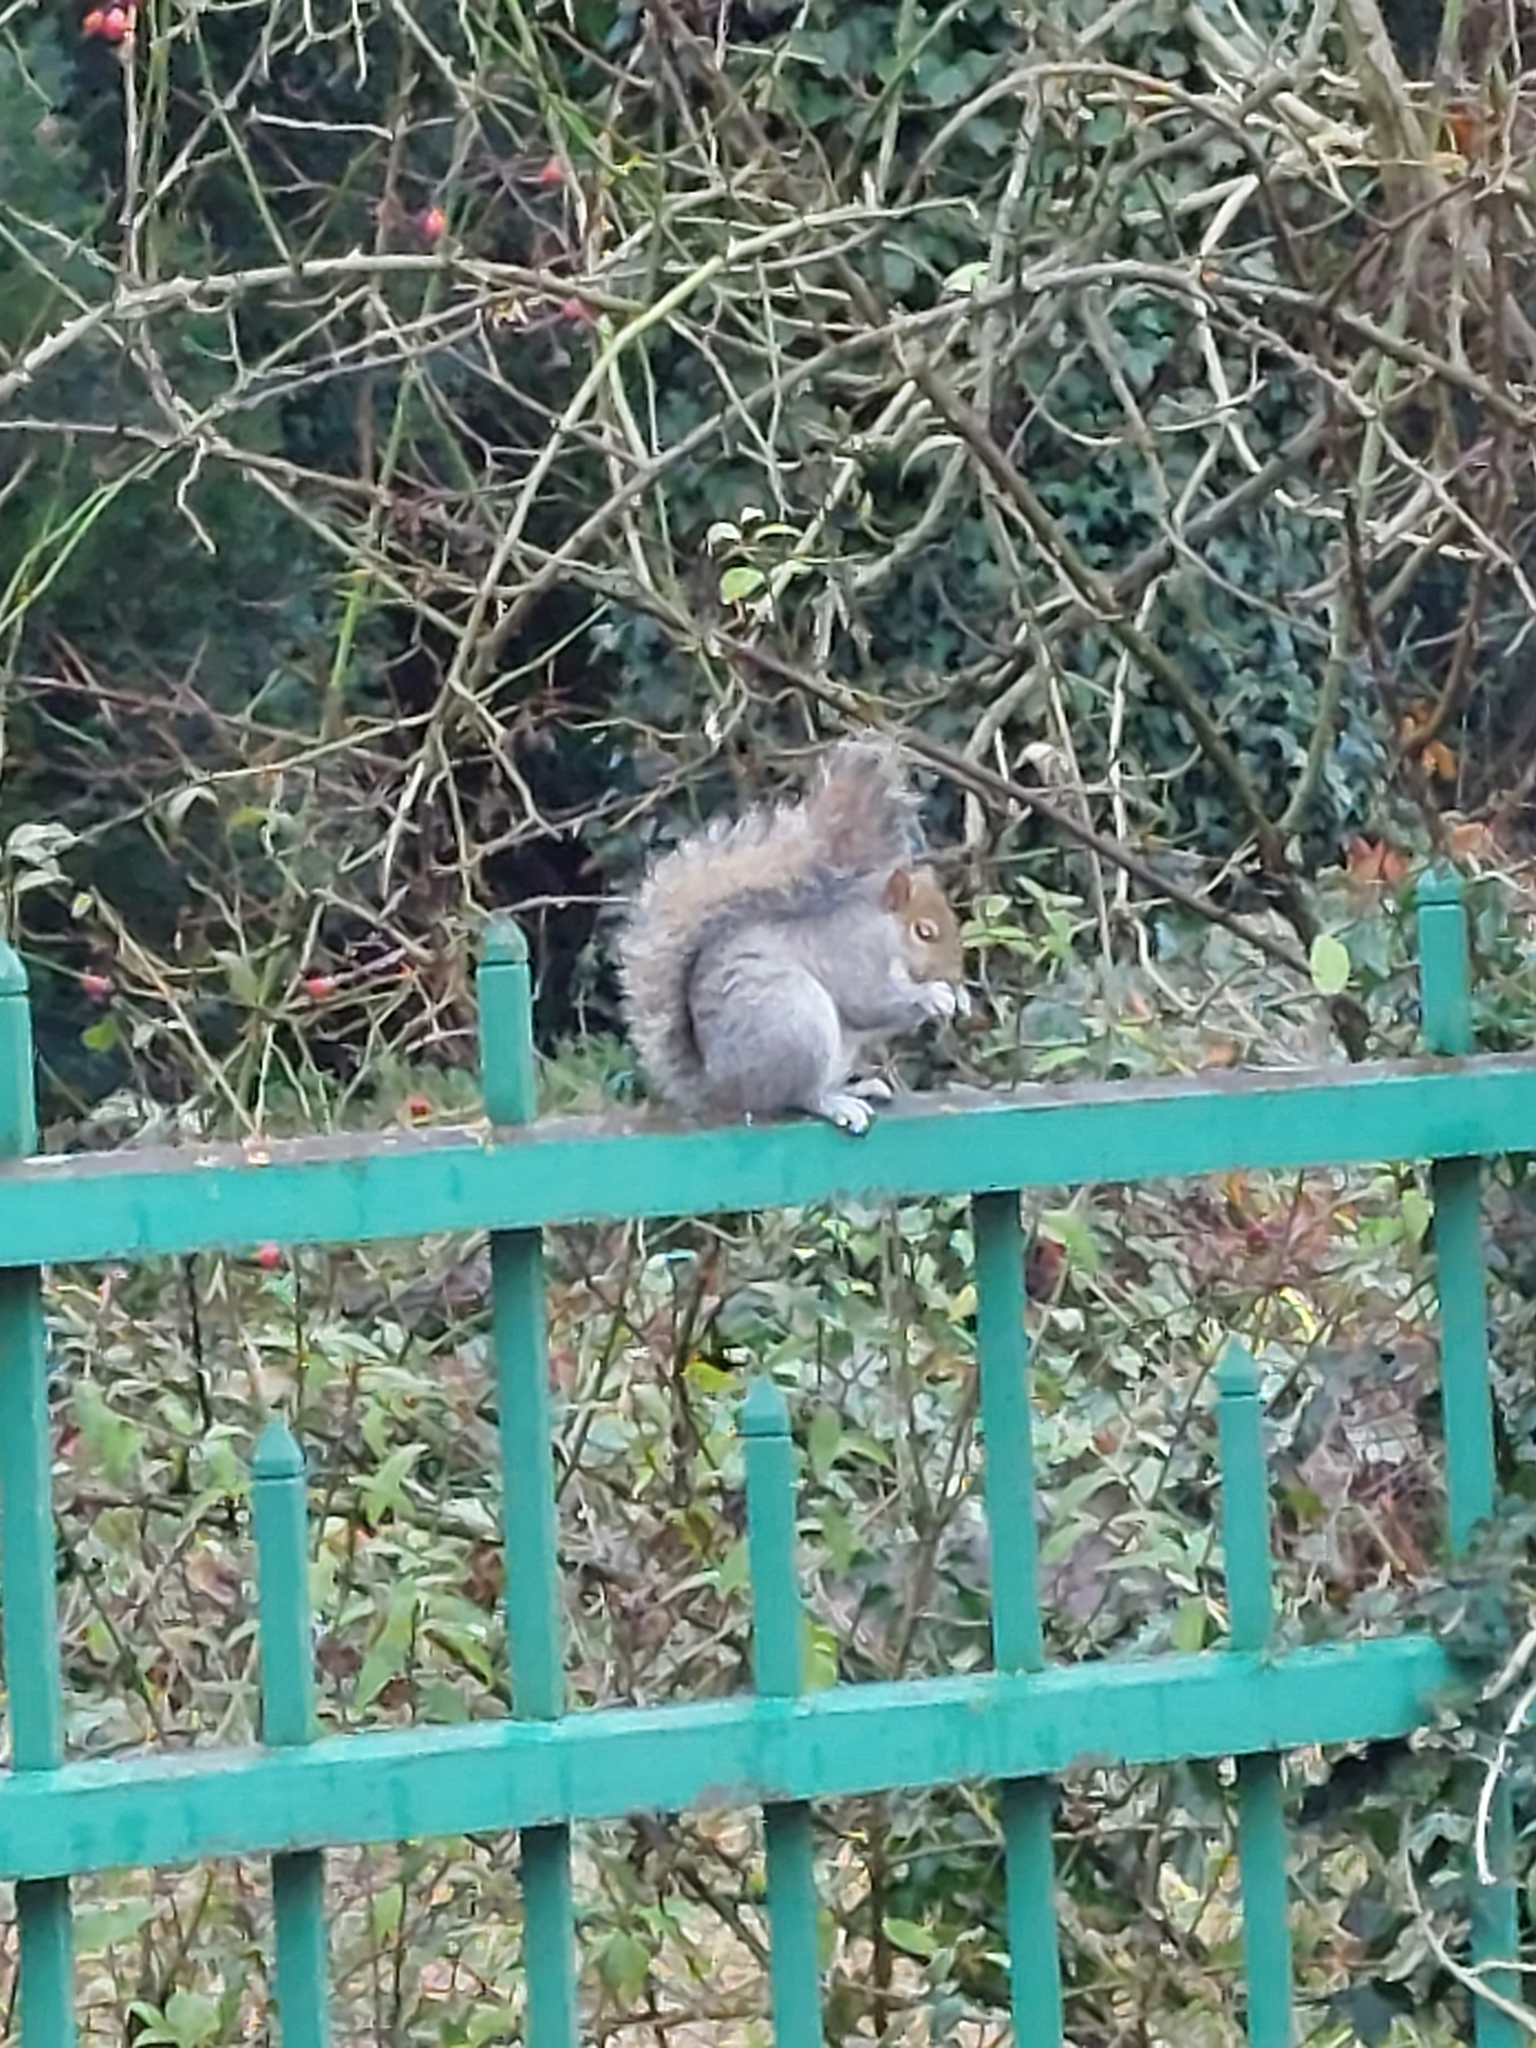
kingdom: Animalia
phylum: Chordata
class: Mammalia
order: Rodentia
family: Sciuridae
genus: Sciurus
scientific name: Sciurus carolinensis
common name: Eastern gray squirrel
